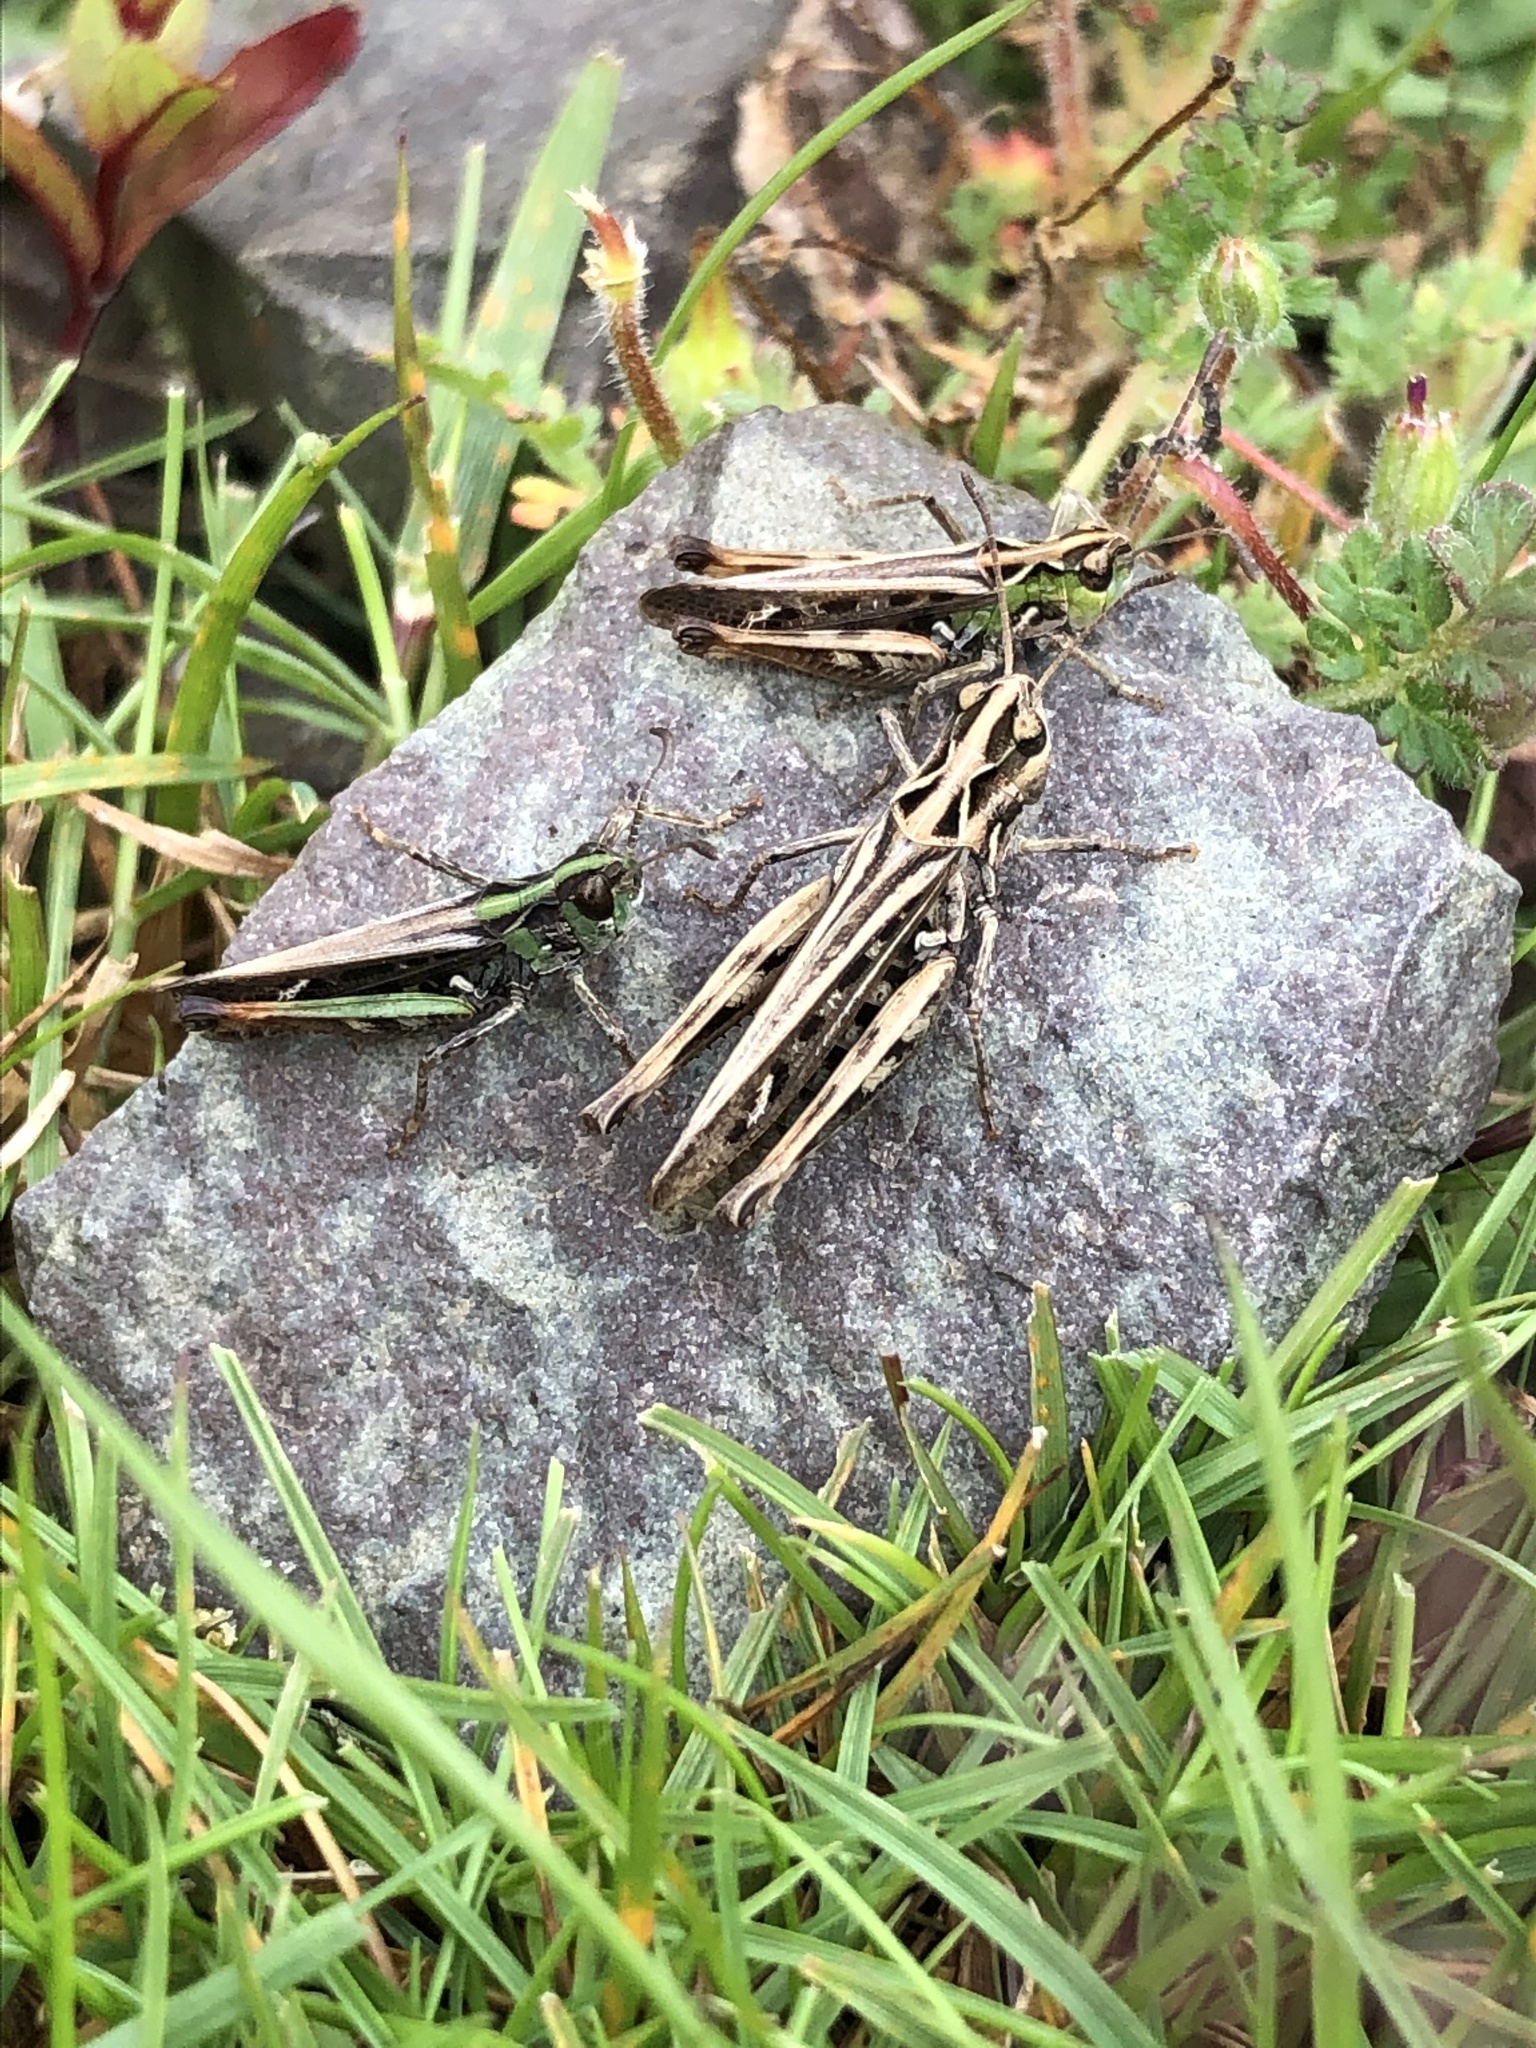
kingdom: Animalia
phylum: Arthropoda
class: Insecta
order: Orthoptera
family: Acrididae
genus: Myrmeleotettix
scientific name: Myrmeleotettix maculatus
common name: Mottled grasshopper
